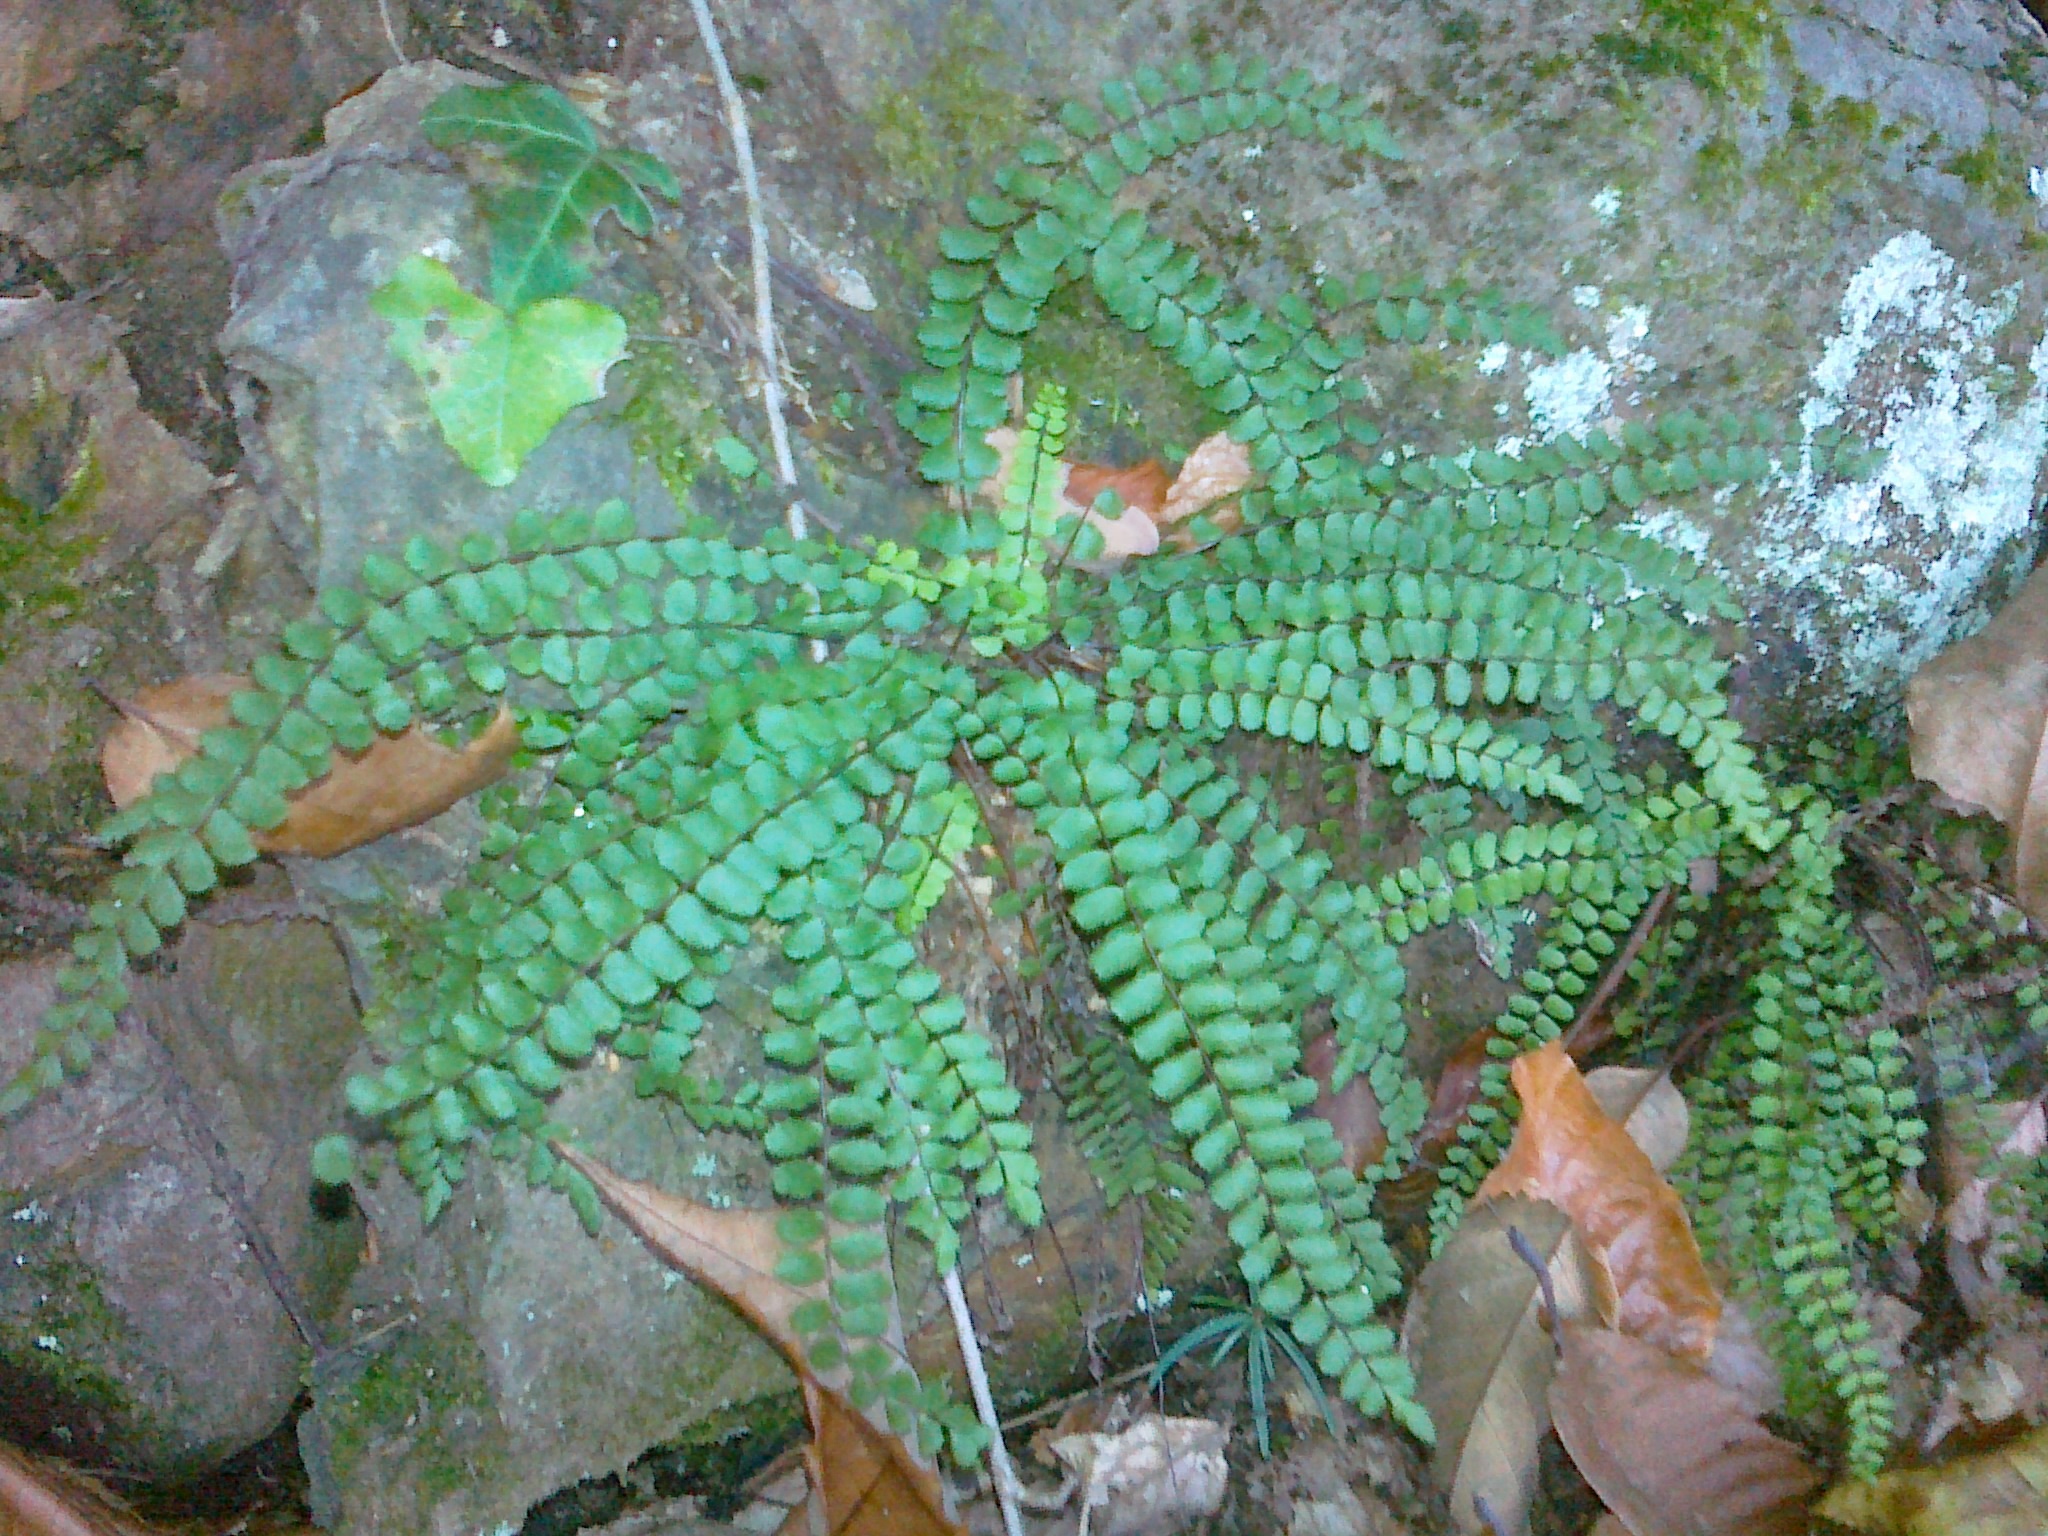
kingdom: Plantae
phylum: Tracheophyta
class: Polypodiopsida
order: Polypodiales
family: Aspleniaceae
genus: Asplenium
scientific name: Asplenium quadrivalens
